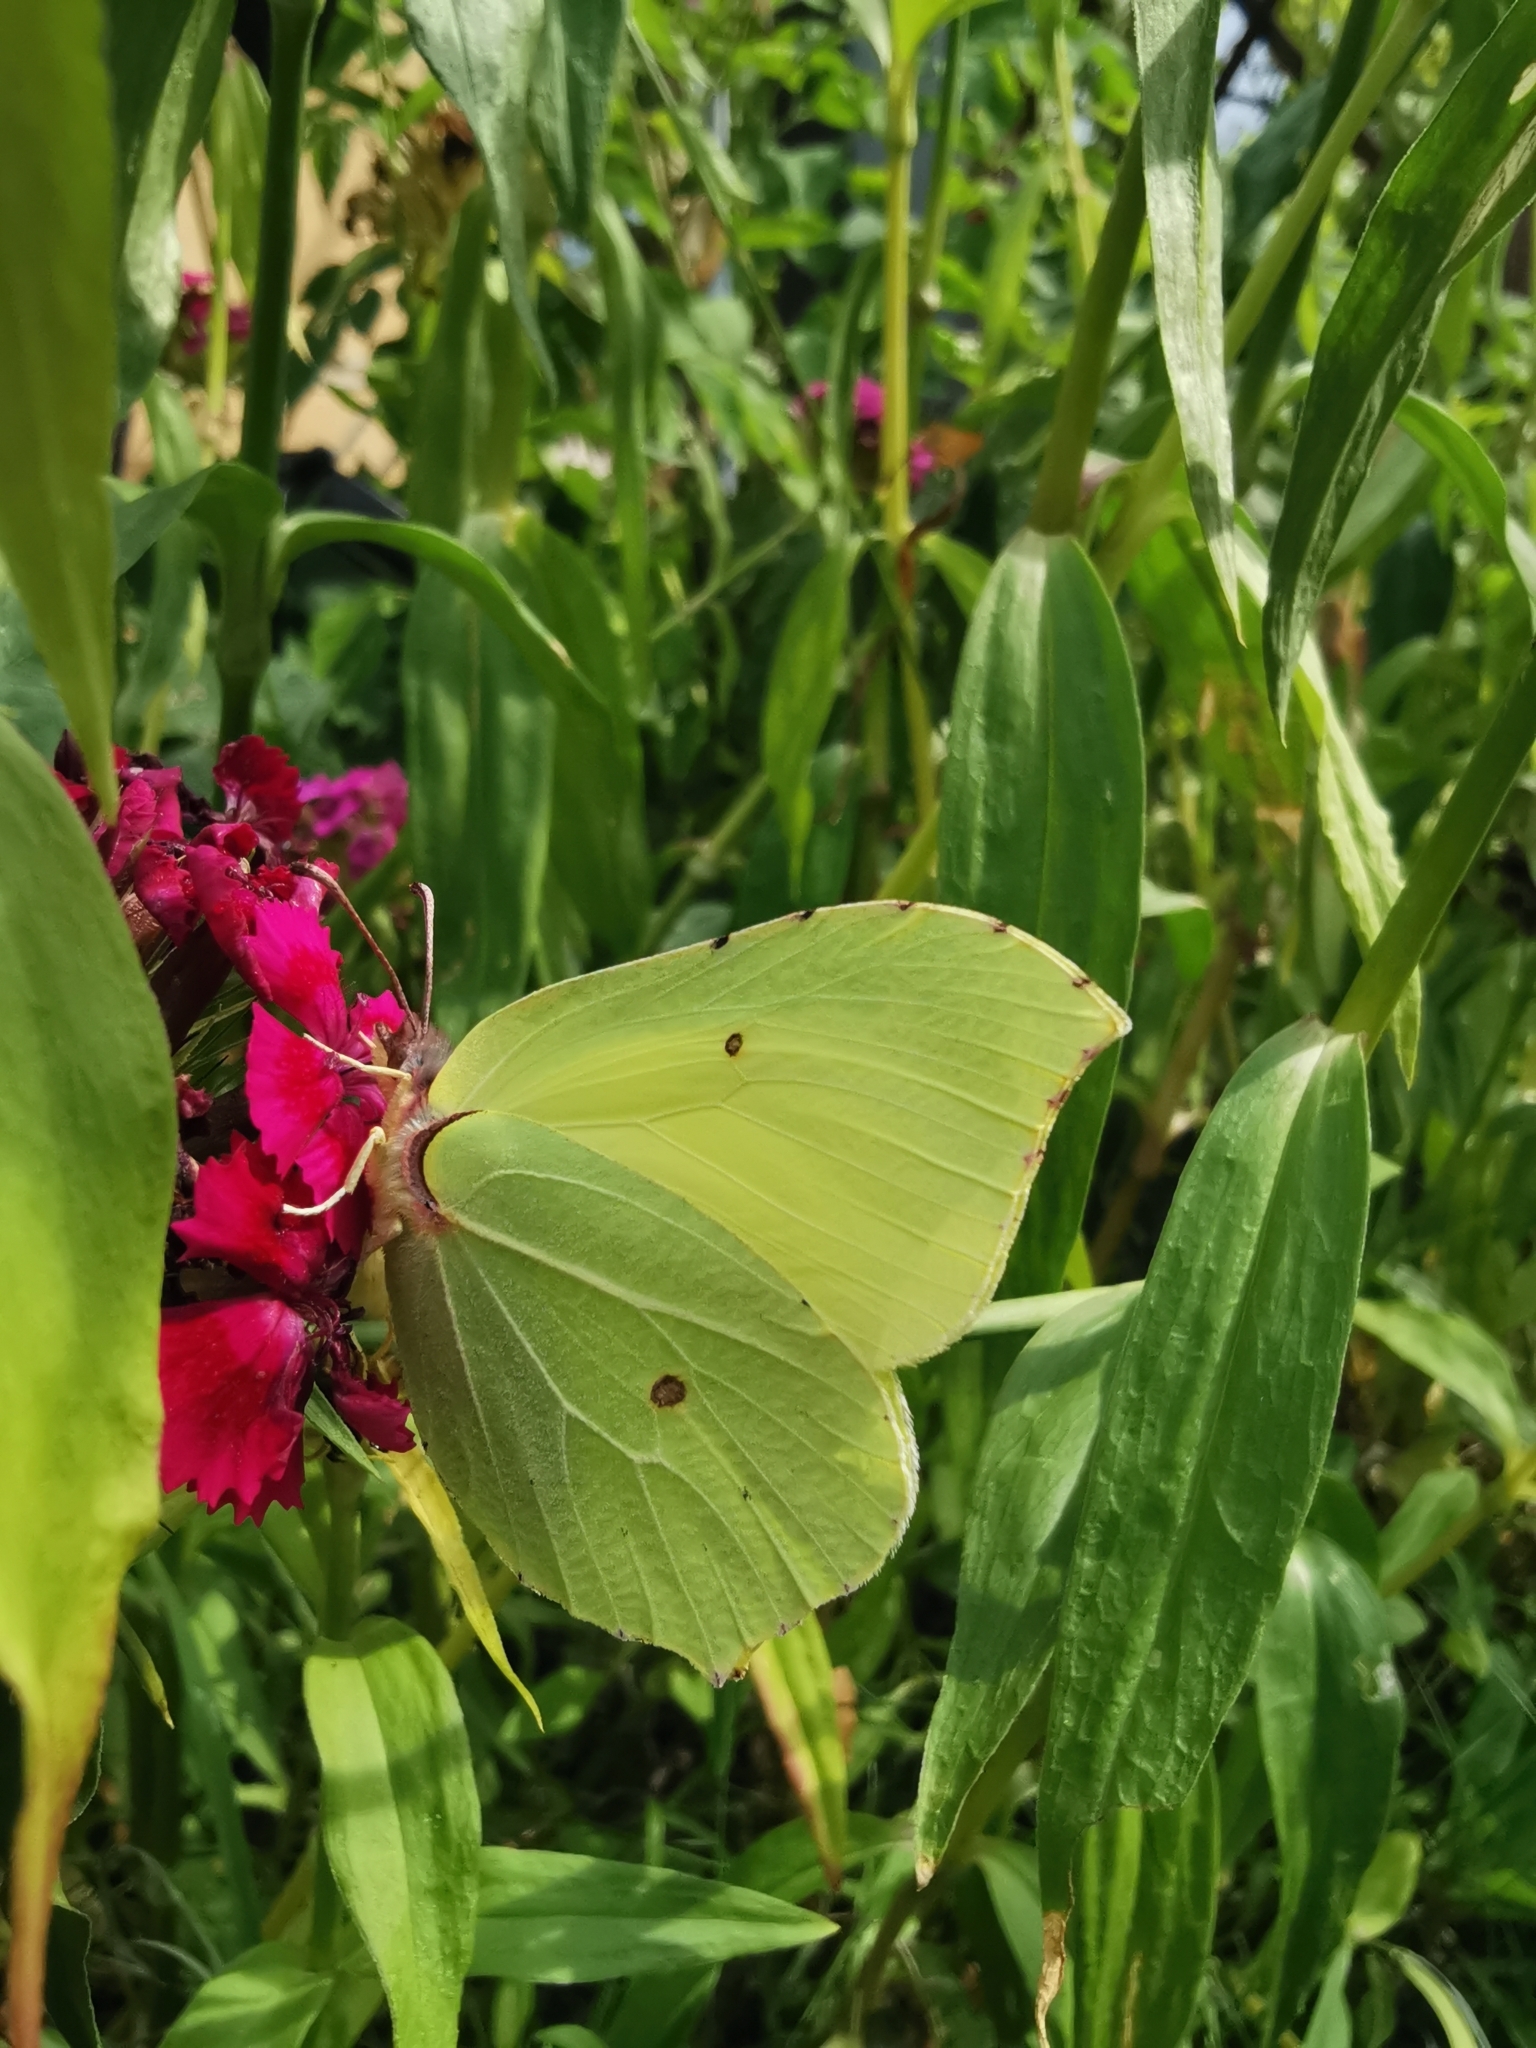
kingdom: Animalia
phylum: Arthropoda
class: Insecta
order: Lepidoptera
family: Pieridae
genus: Gonepteryx
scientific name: Gonepteryx rhamni
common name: Brimstone
